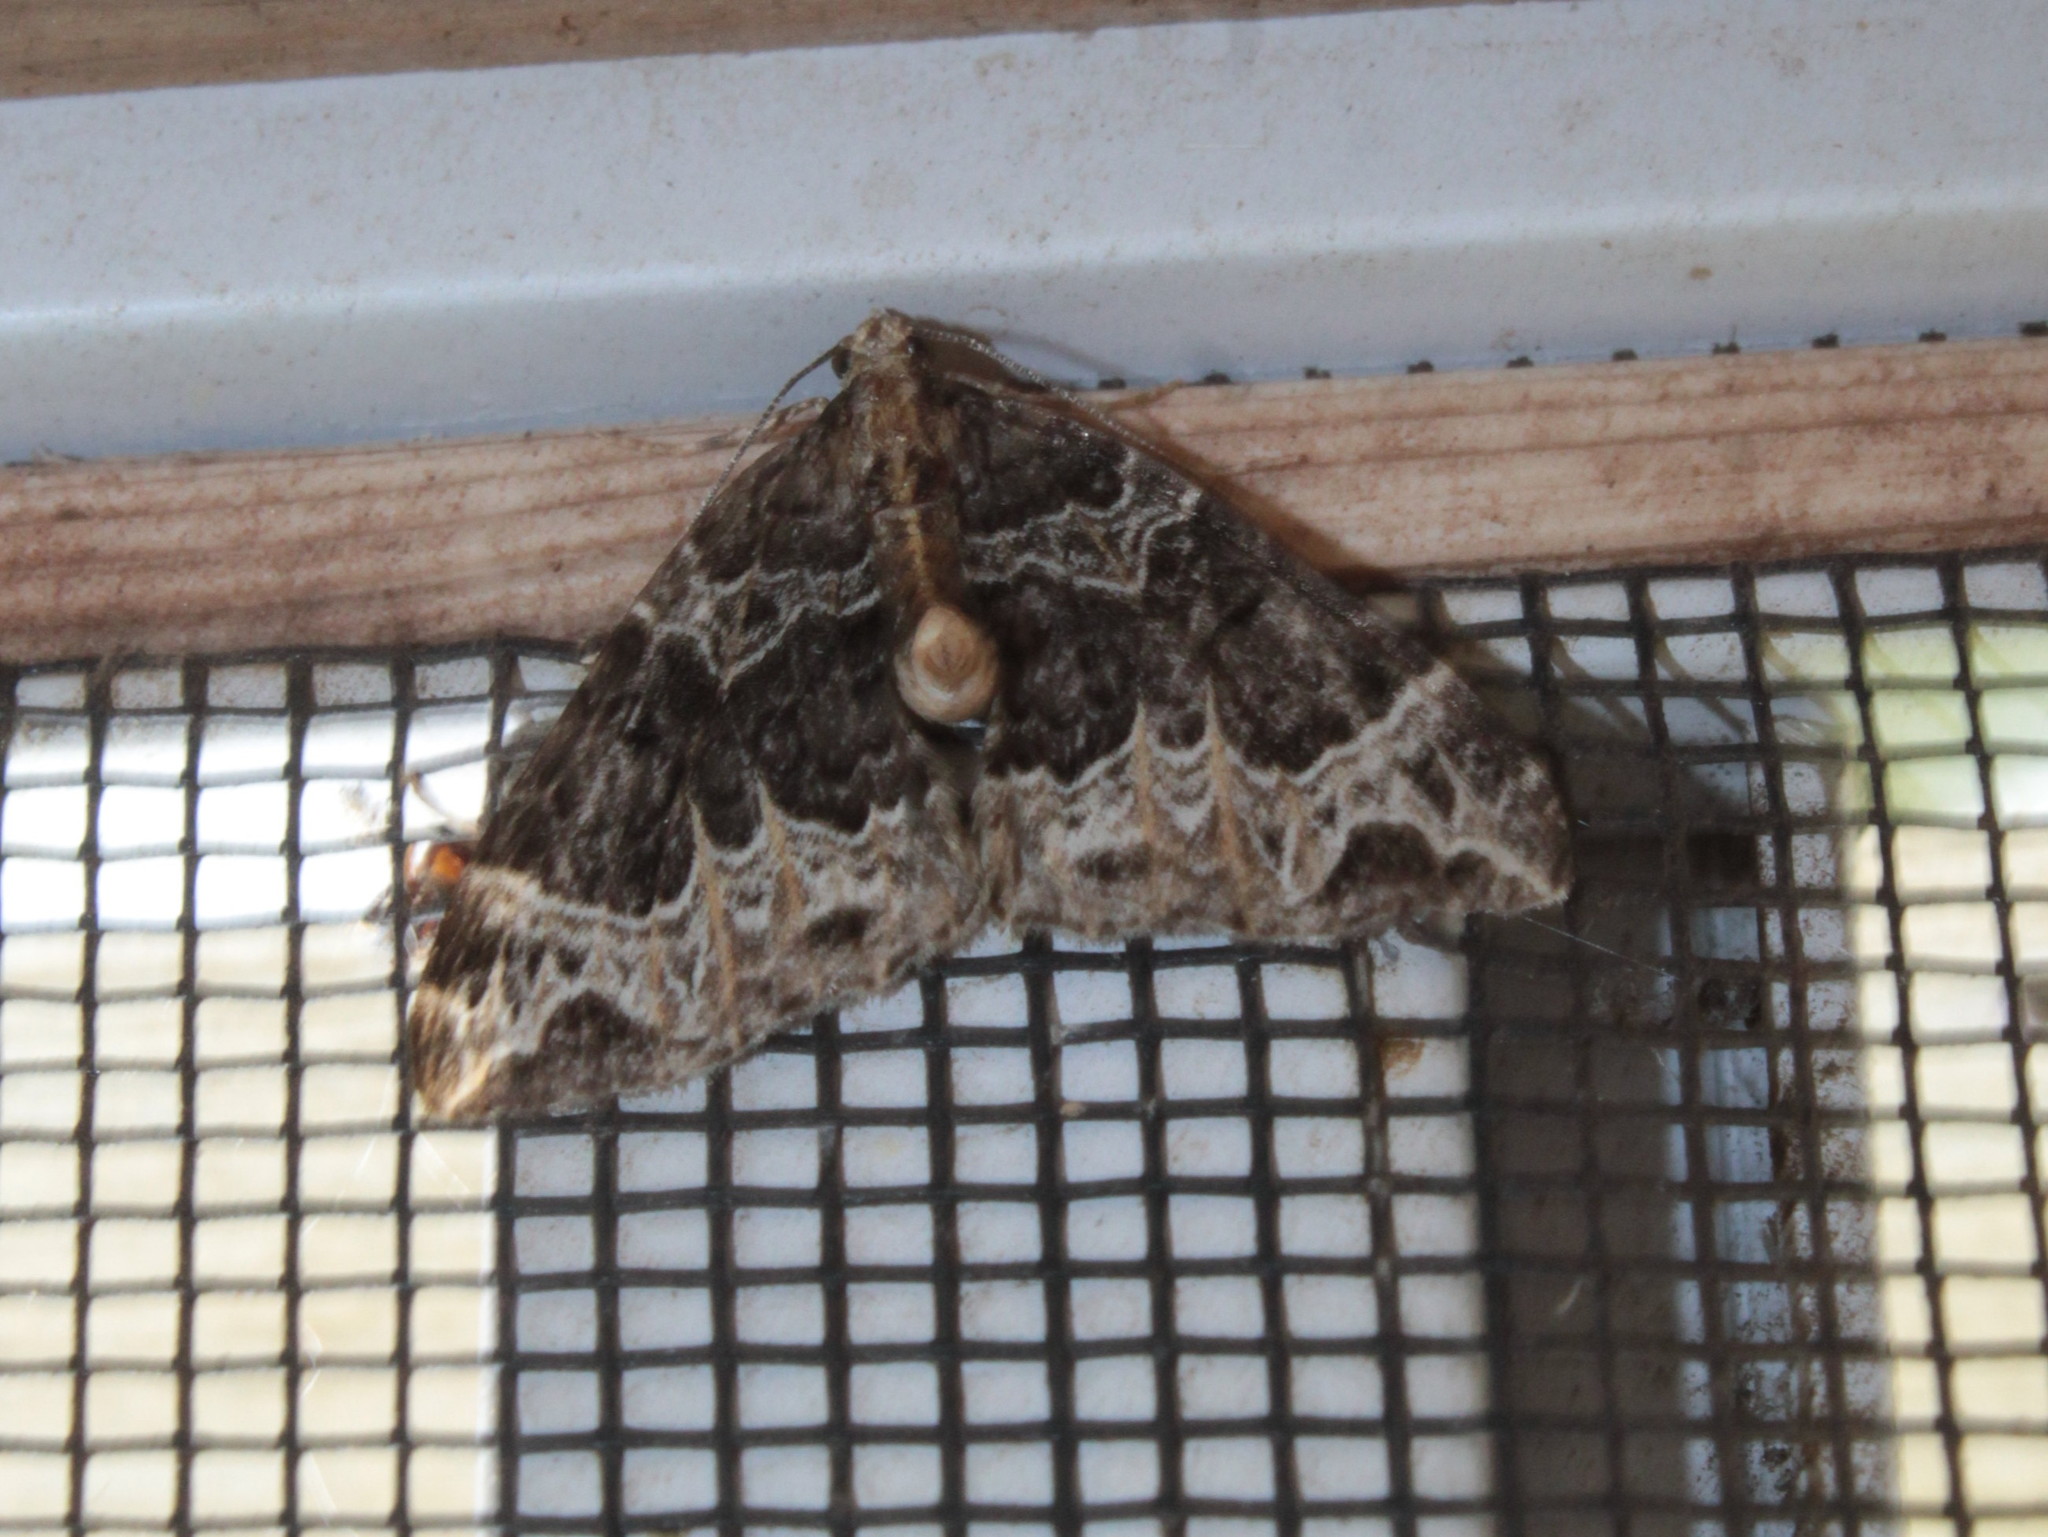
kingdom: Animalia
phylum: Arthropoda
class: Insecta
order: Lepidoptera
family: Geometridae
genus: Ecliptopera
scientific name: Ecliptopera silaceata
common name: Small phoenix
